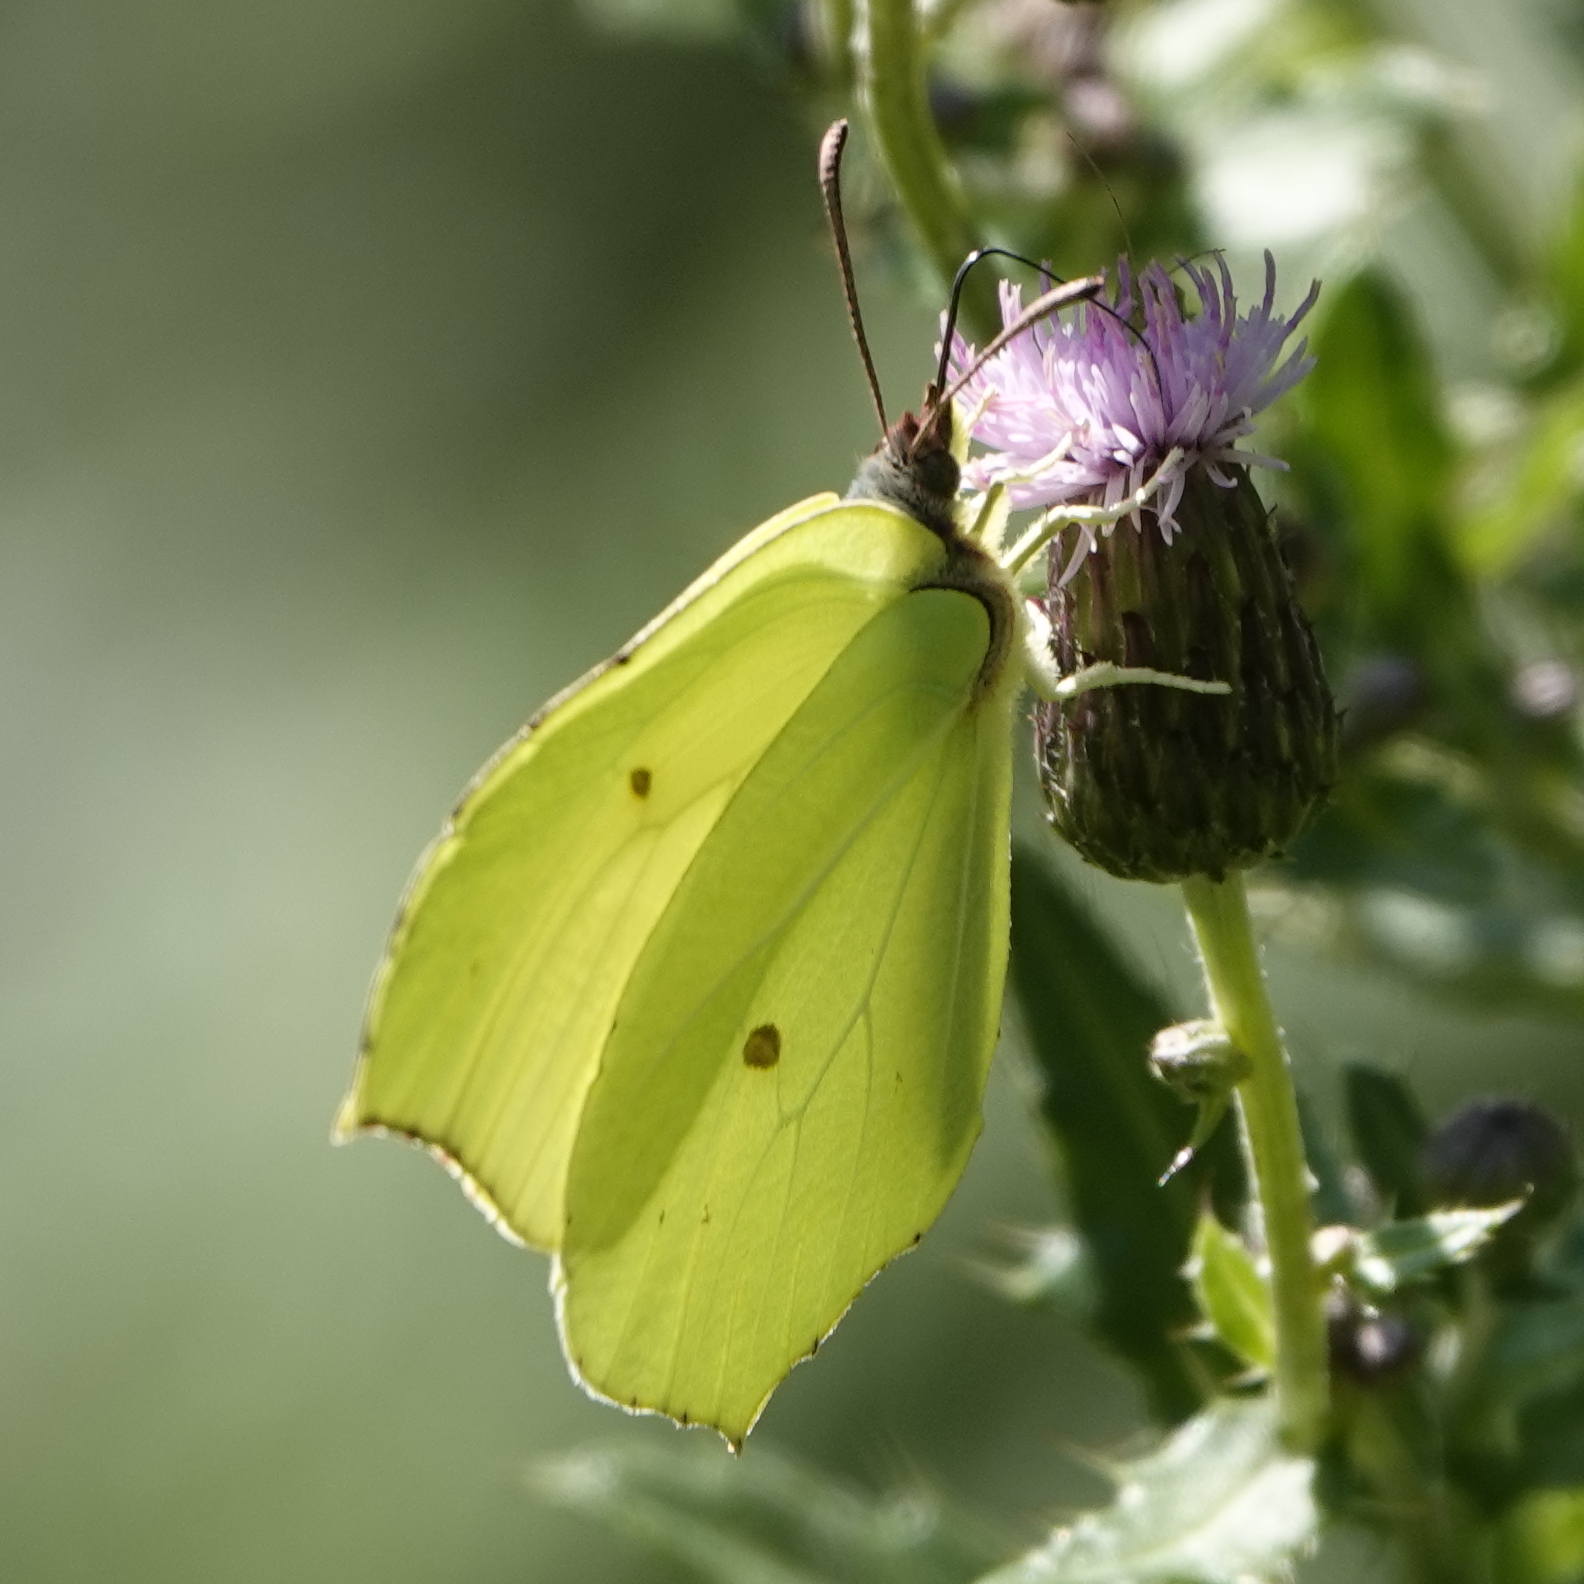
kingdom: Animalia
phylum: Arthropoda
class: Insecta
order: Lepidoptera
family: Pieridae
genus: Gonepteryx
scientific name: Gonepteryx rhamni
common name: Brimstone
